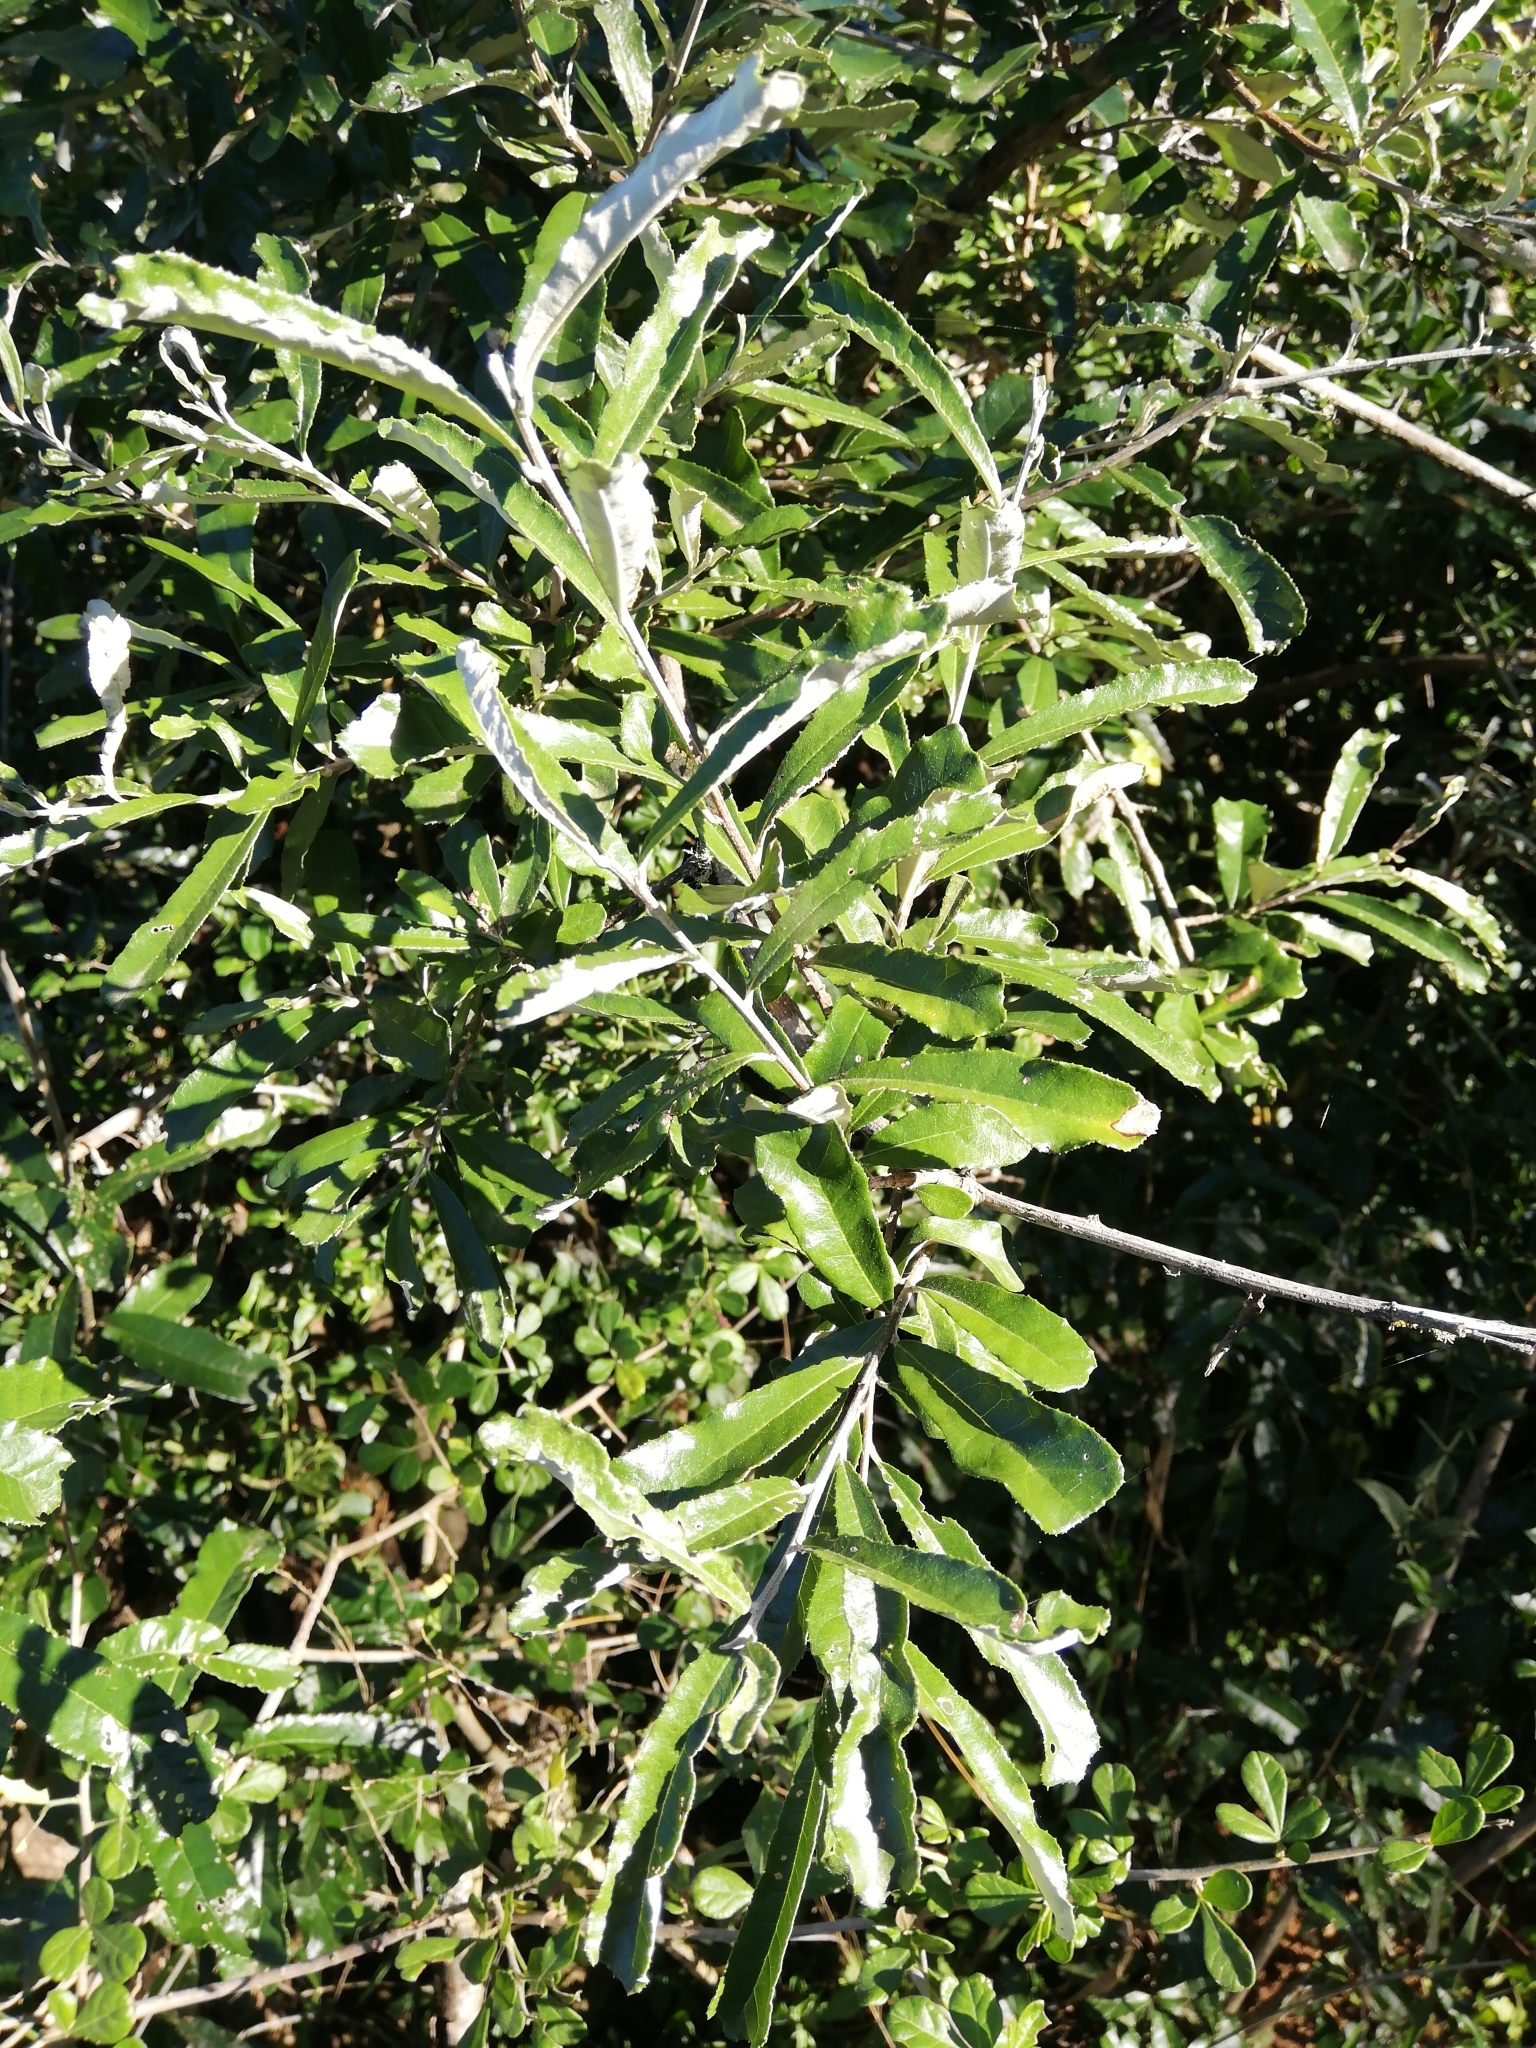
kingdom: Plantae
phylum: Tracheophyta
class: Magnoliopsida
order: Asterales
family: Asteraceae
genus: Brachylaena
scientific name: Brachylaena elliptica
